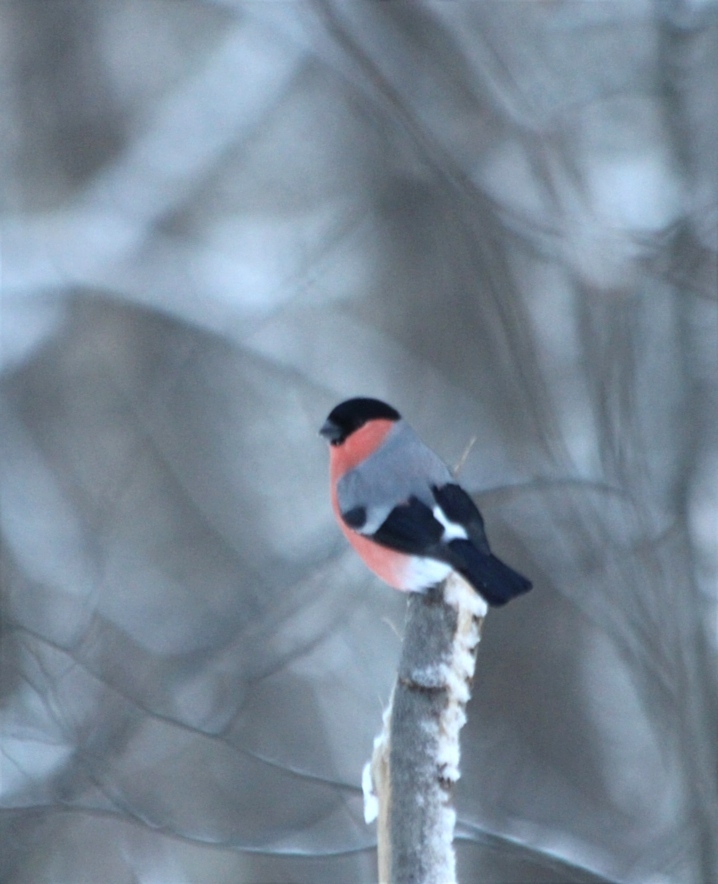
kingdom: Animalia
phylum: Chordata
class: Aves
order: Passeriformes
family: Fringillidae
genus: Pyrrhula
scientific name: Pyrrhula pyrrhula
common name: Eurasian bullfinch
